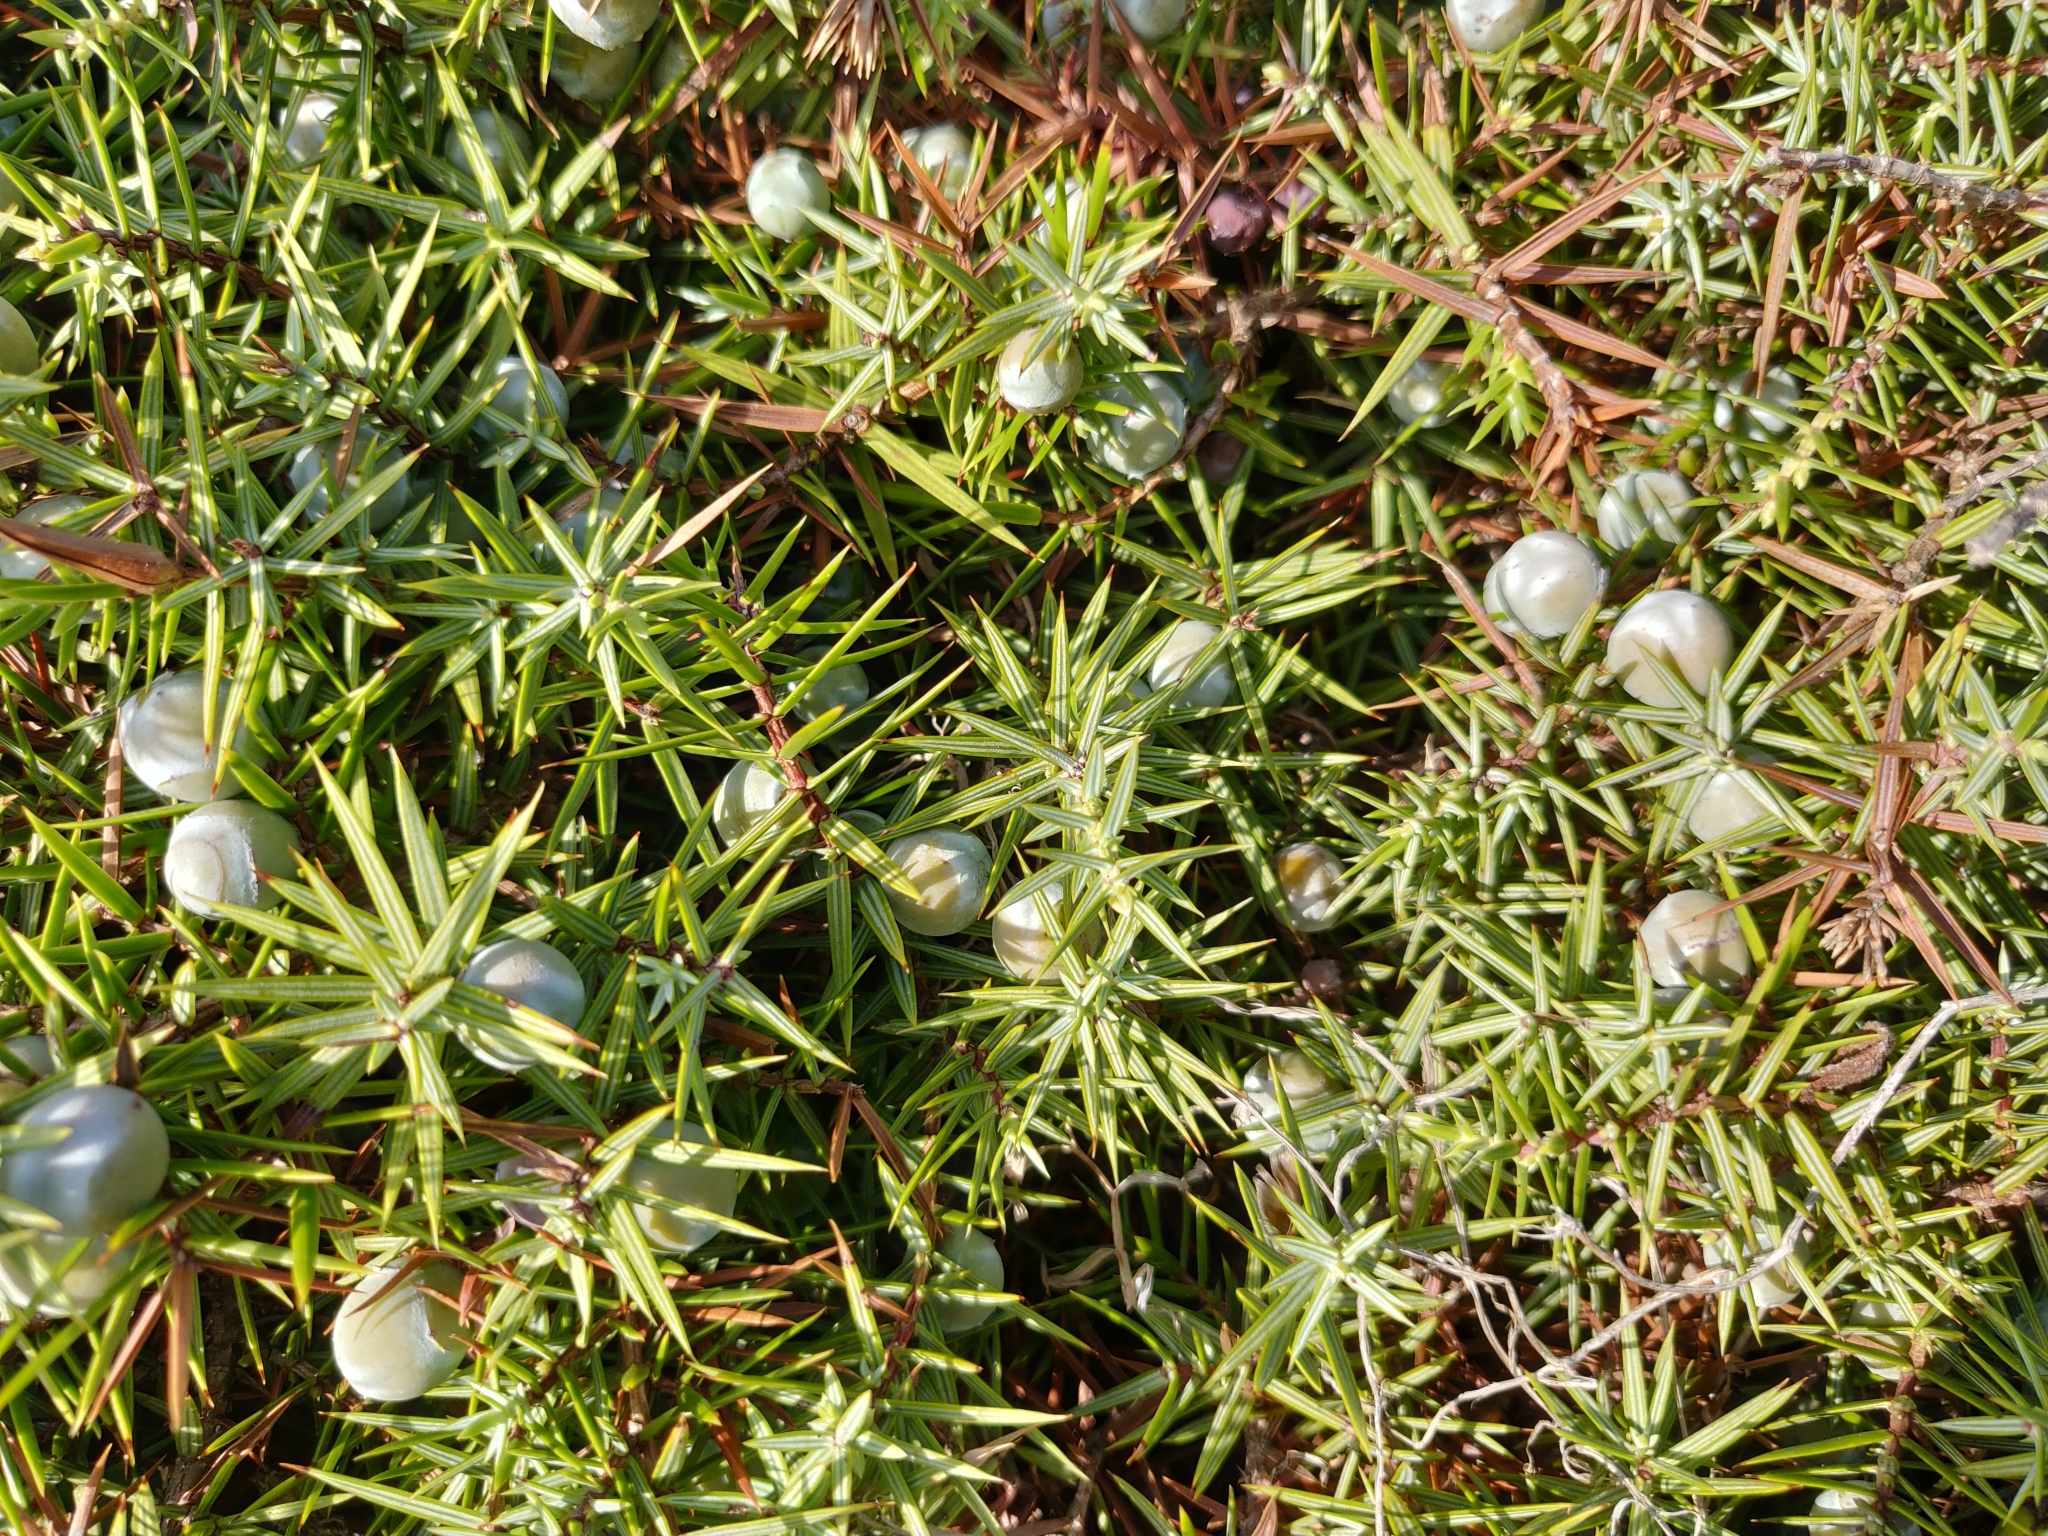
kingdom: Plantae
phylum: Tracheophyta
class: Pinopsida
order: Pinales
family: Cupressaceae
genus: Juniperus
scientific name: Juniperus oxycedrus
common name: Prickly juniper
